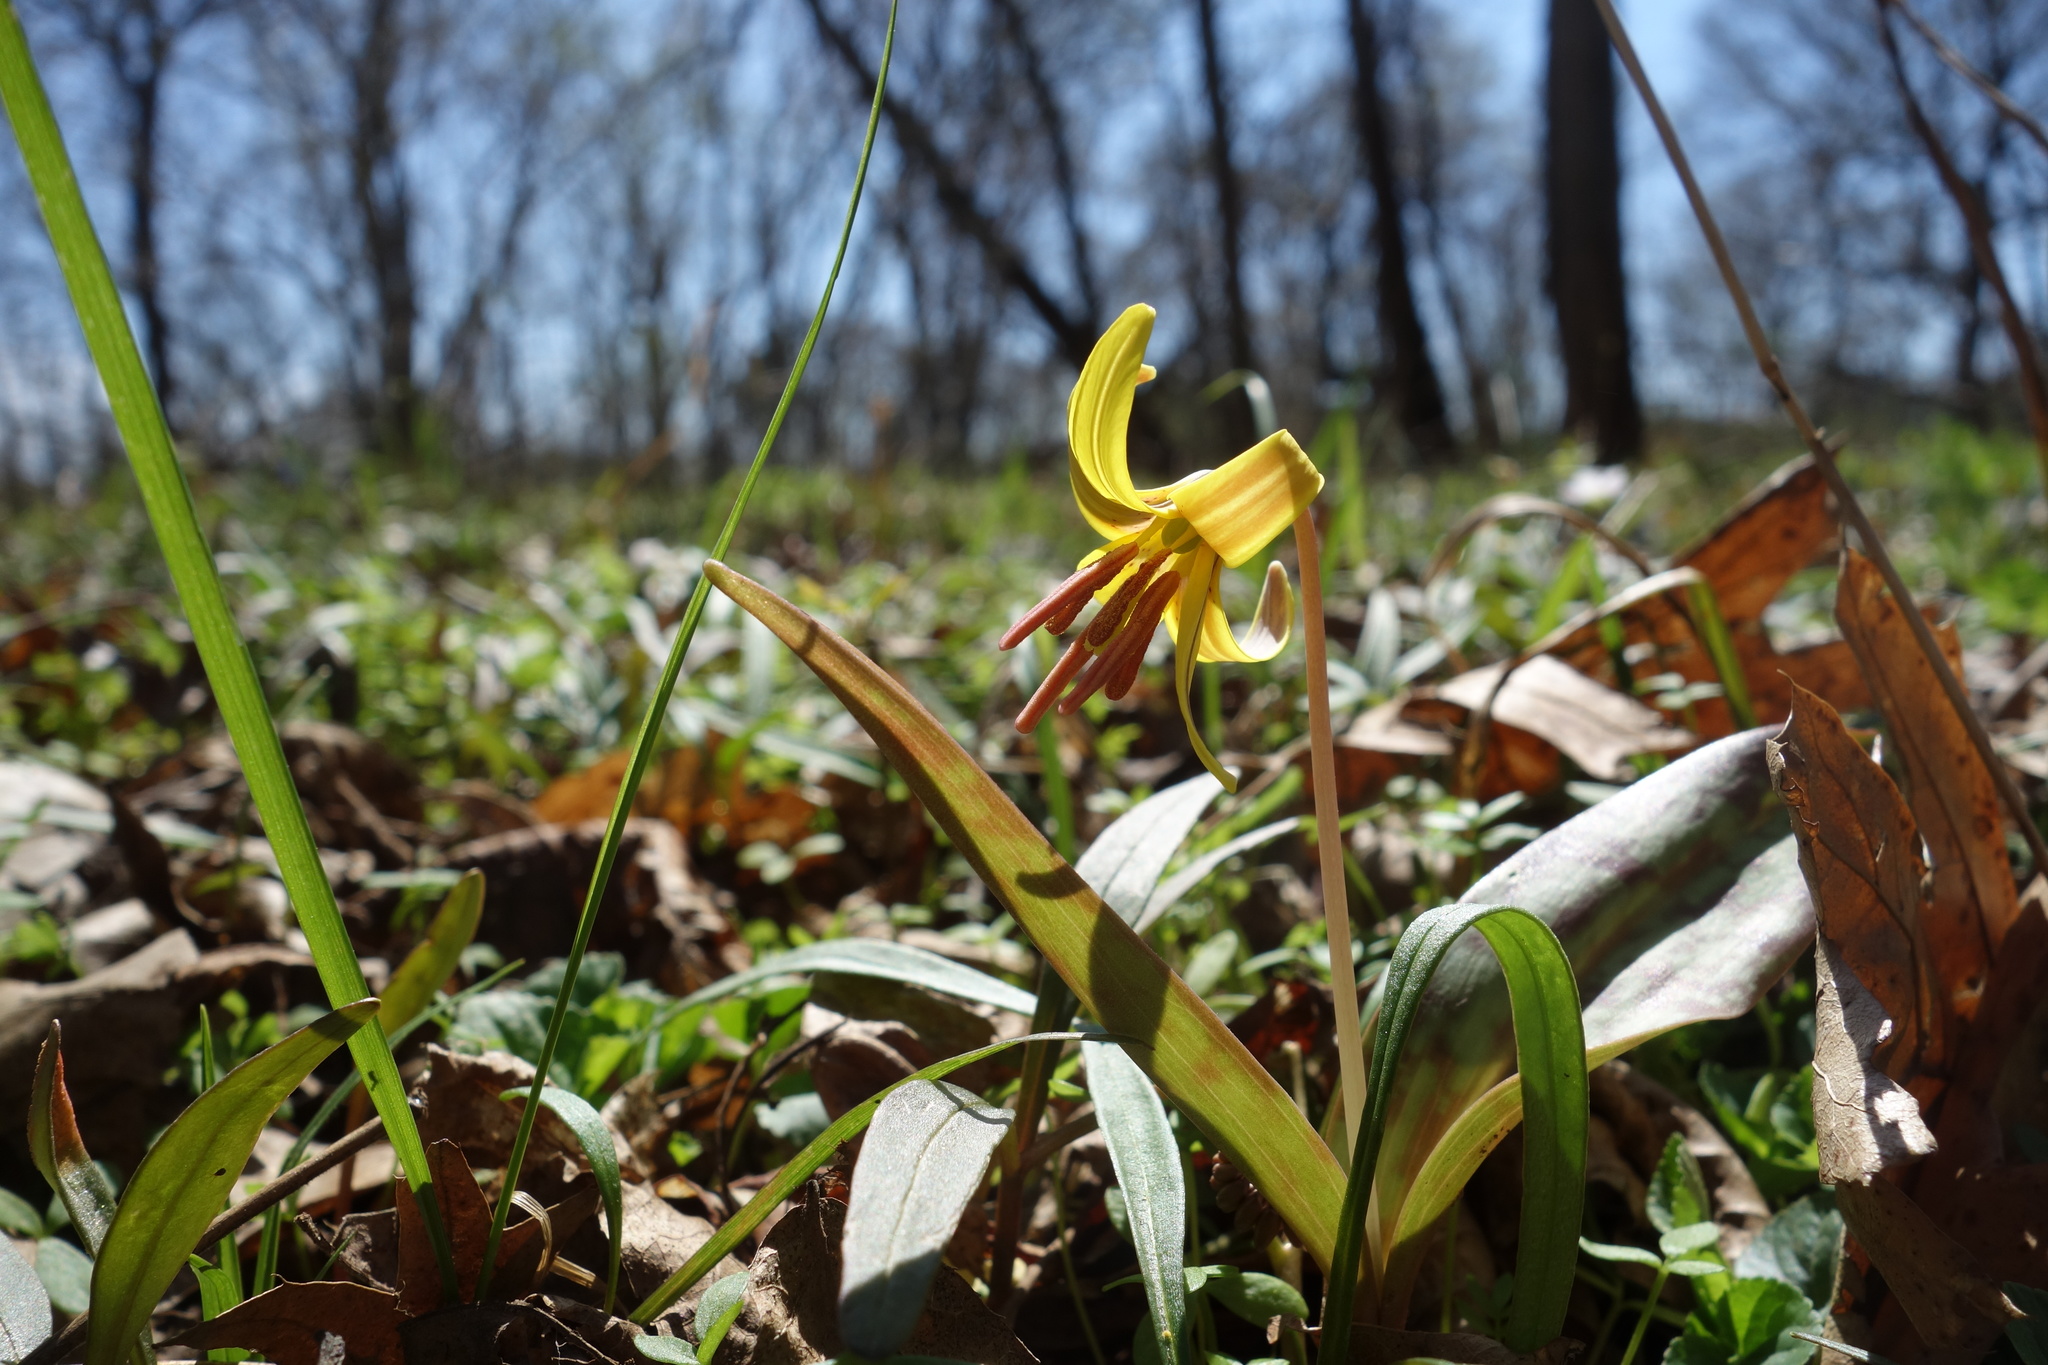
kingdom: Plantae
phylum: Tracheophyta
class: Liliopsida
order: Liliales
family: Liliaceae
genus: Erythronium
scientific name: Erythronium americanum
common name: Yellow adder's-tongue
